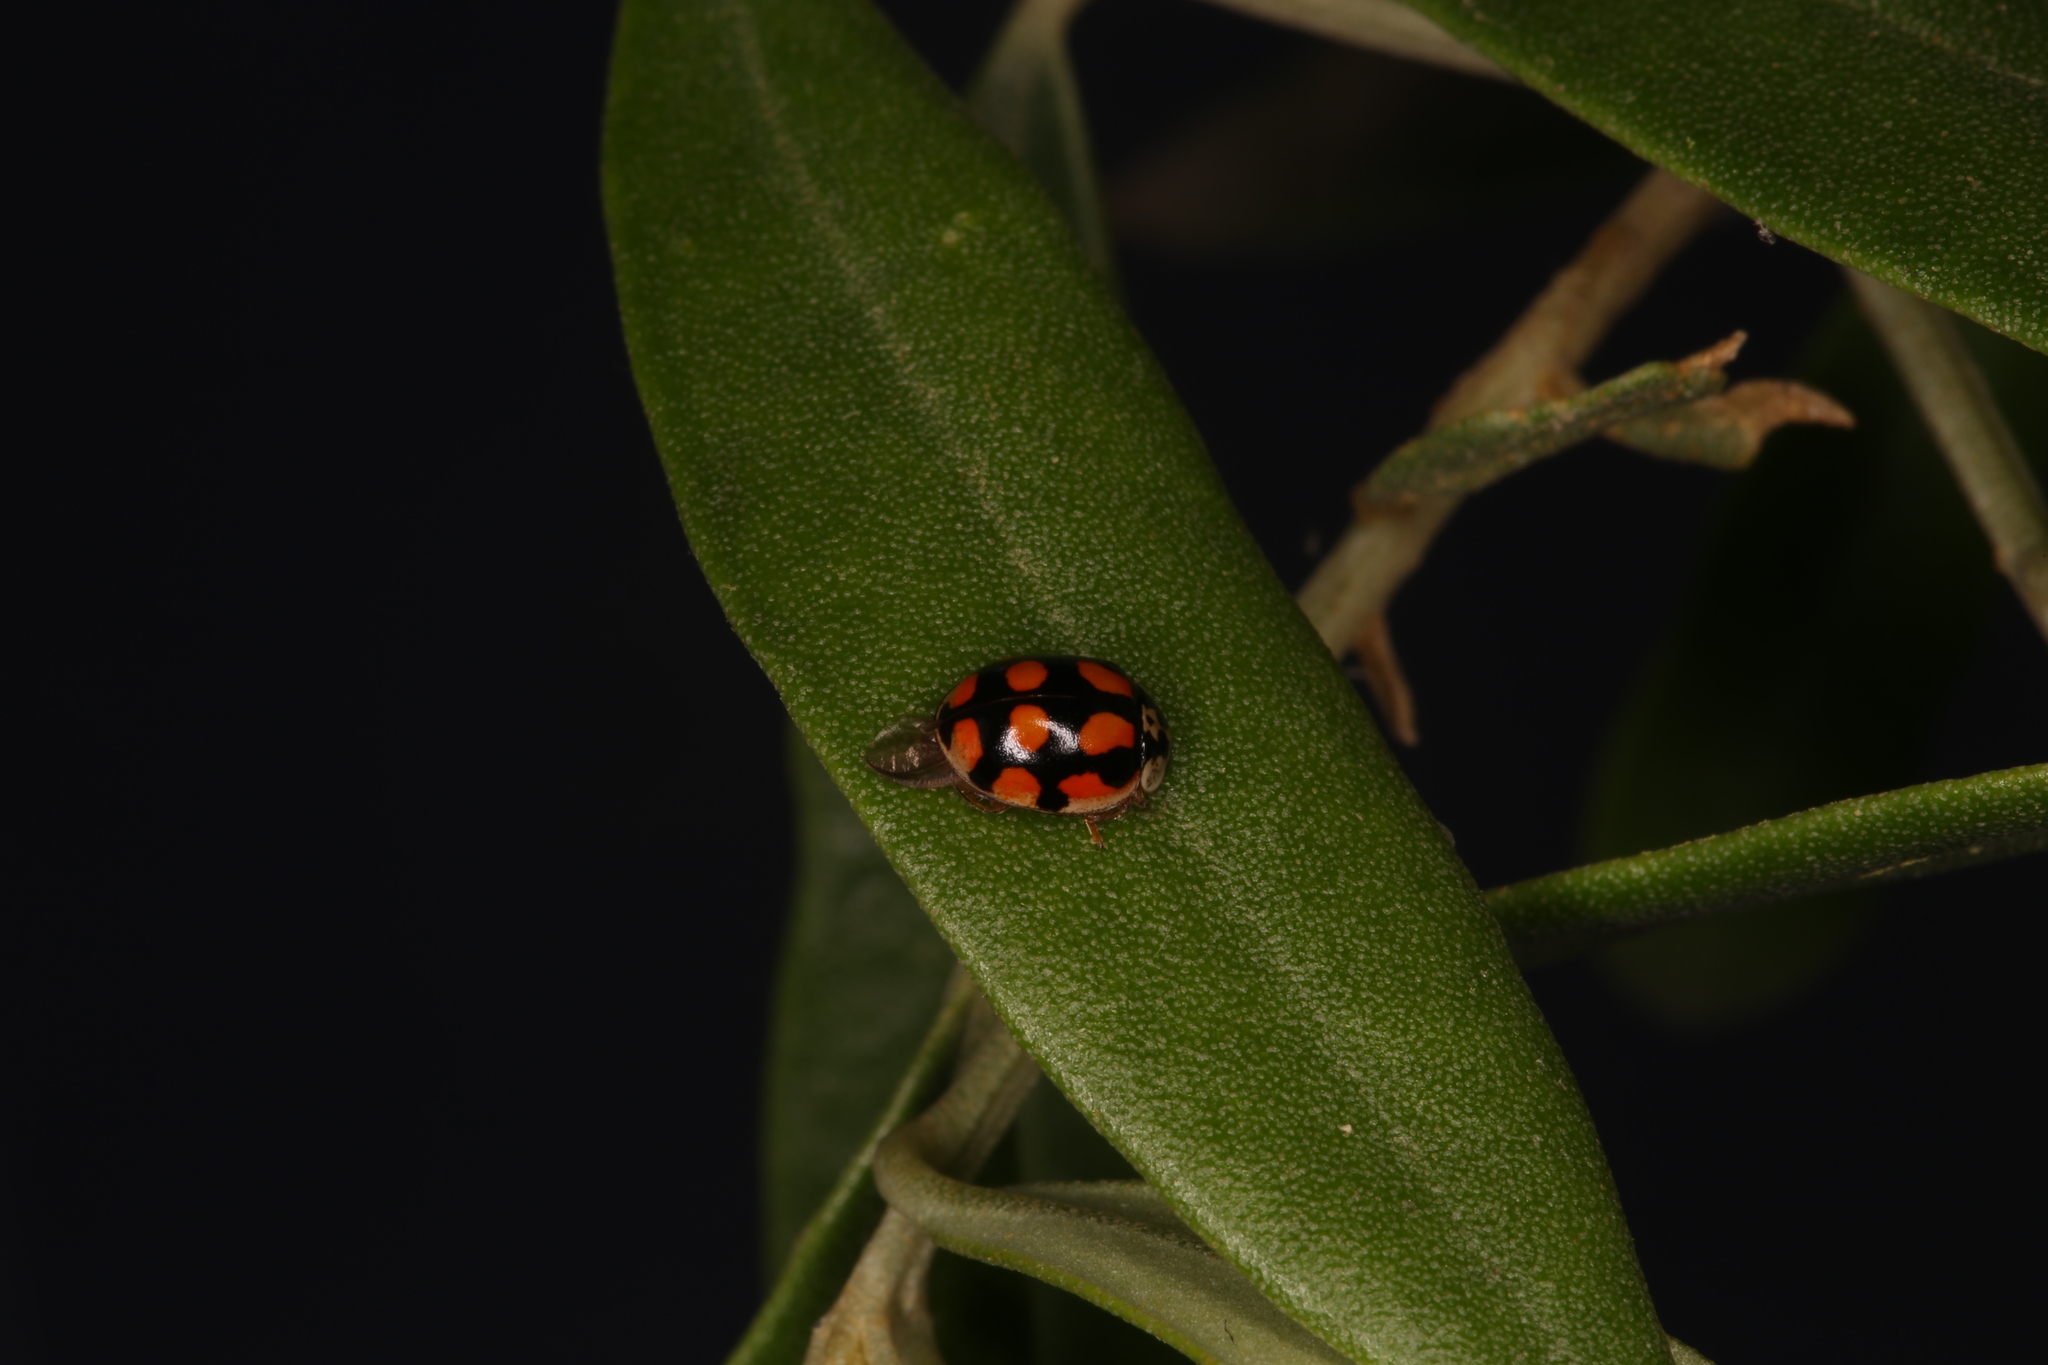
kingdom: Animalia
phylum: Arthropoda
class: Insecta
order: Coleoptera
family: Coccinellidae
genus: Adalia
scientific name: Adalia decempunctata
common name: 10-spot ladybird
